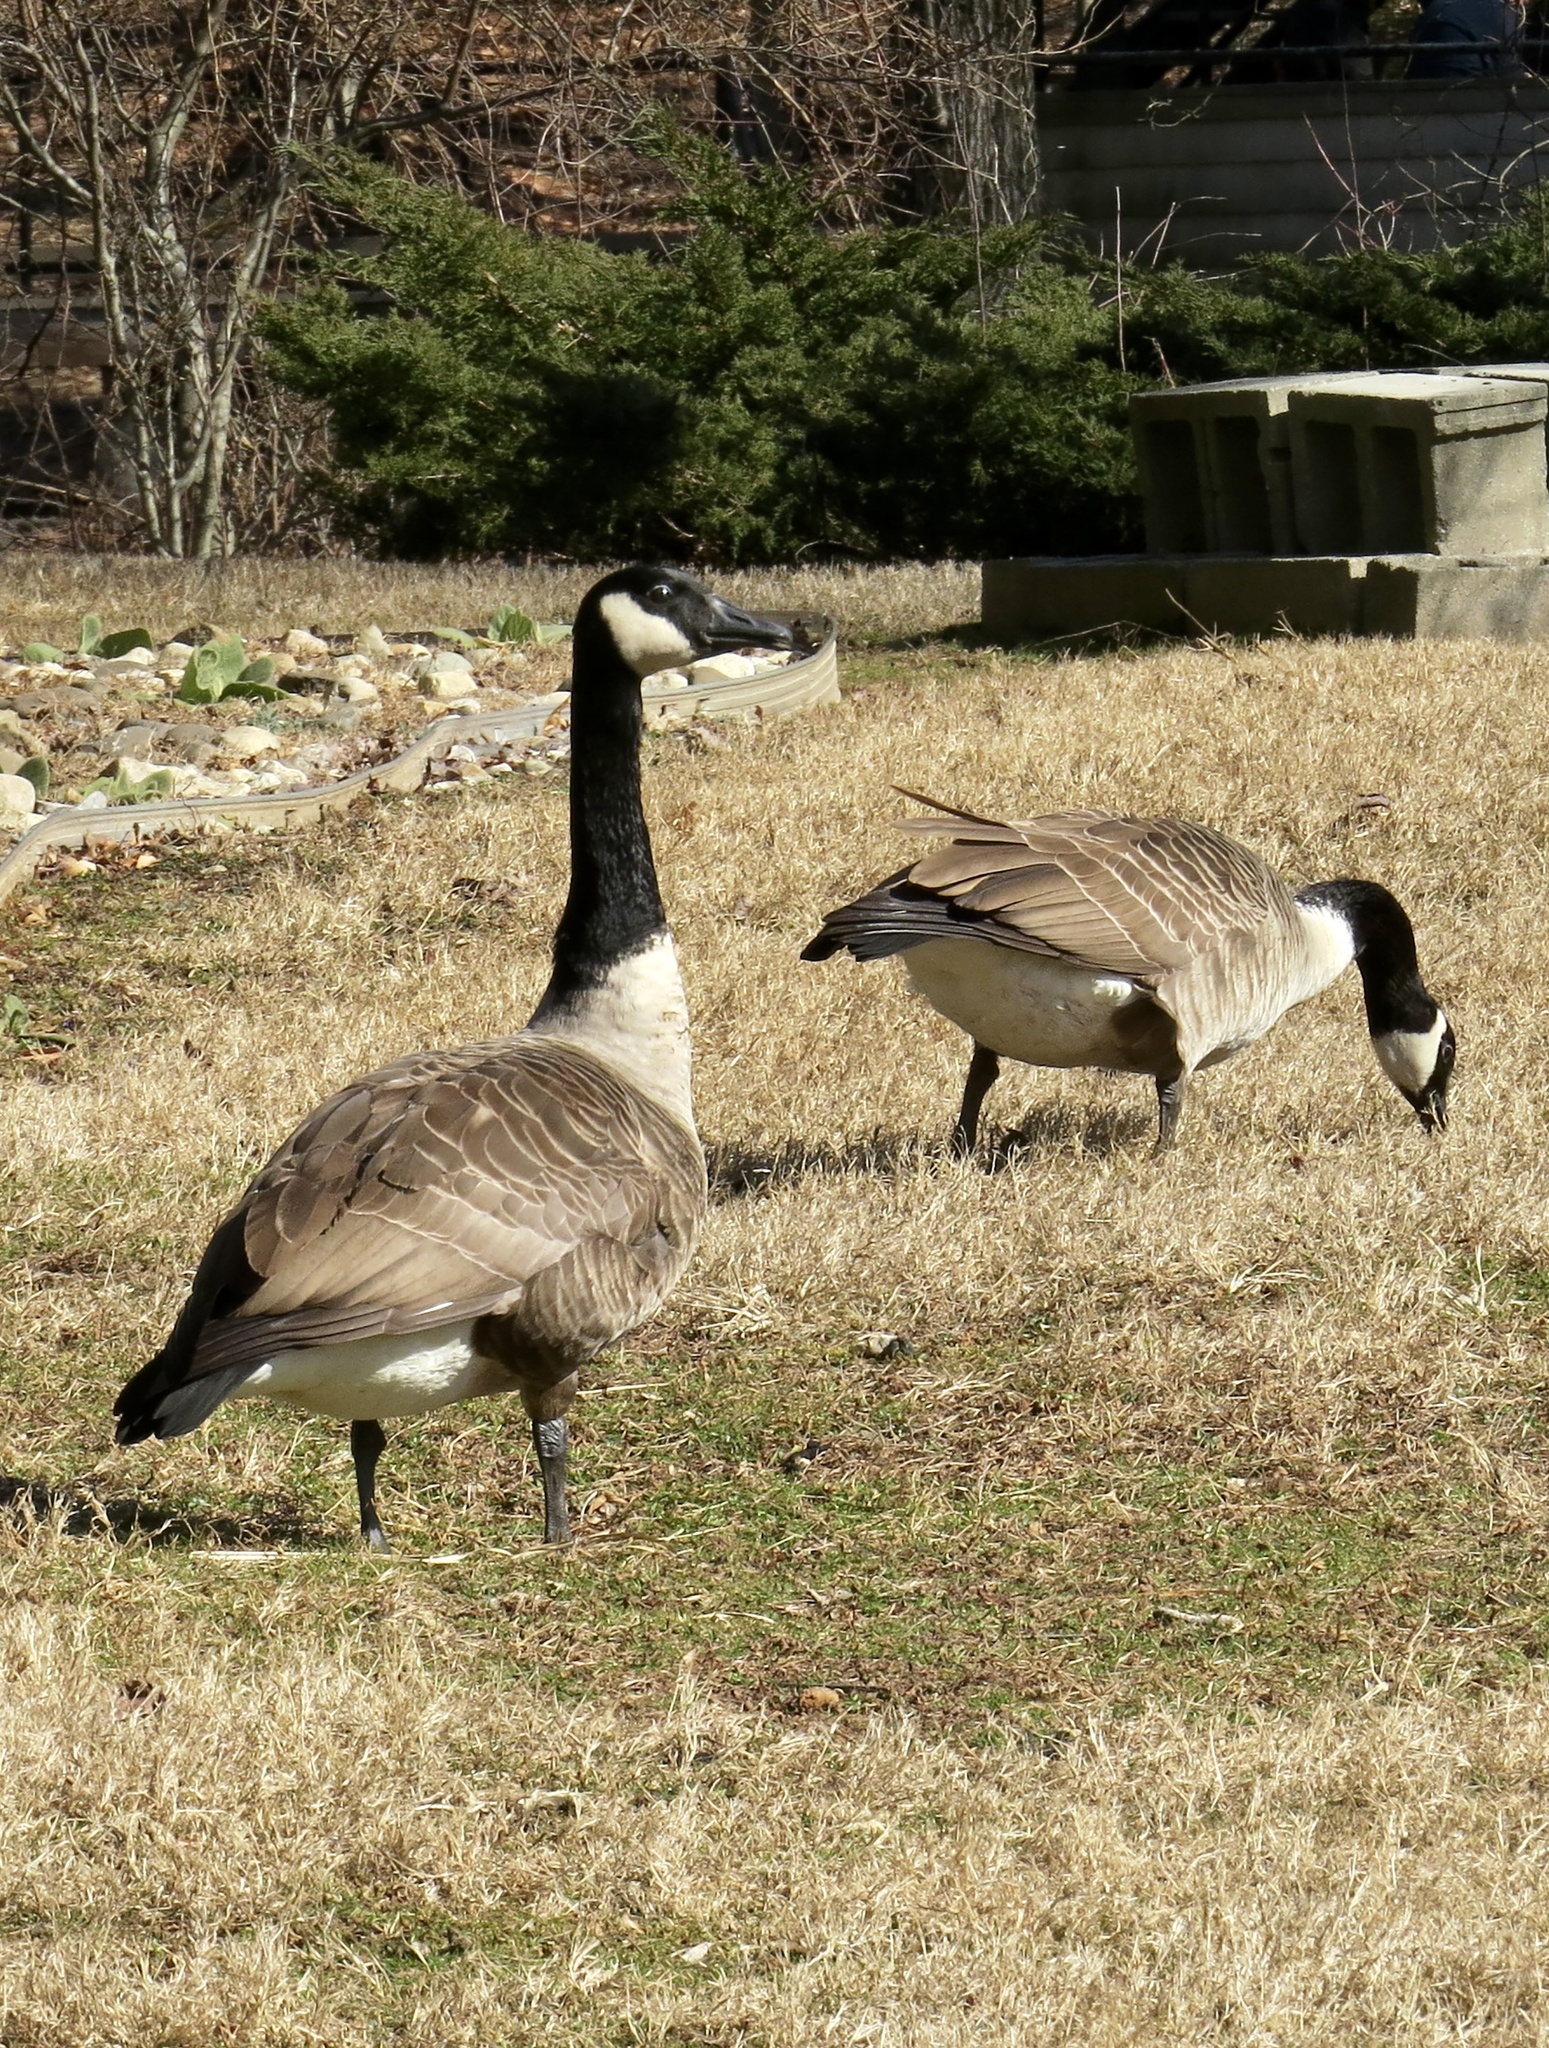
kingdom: Animalia
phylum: Chordata
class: Aves
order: Anseriformes
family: Anatidae
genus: Branta
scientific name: Branta canadensis
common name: Canada goose
